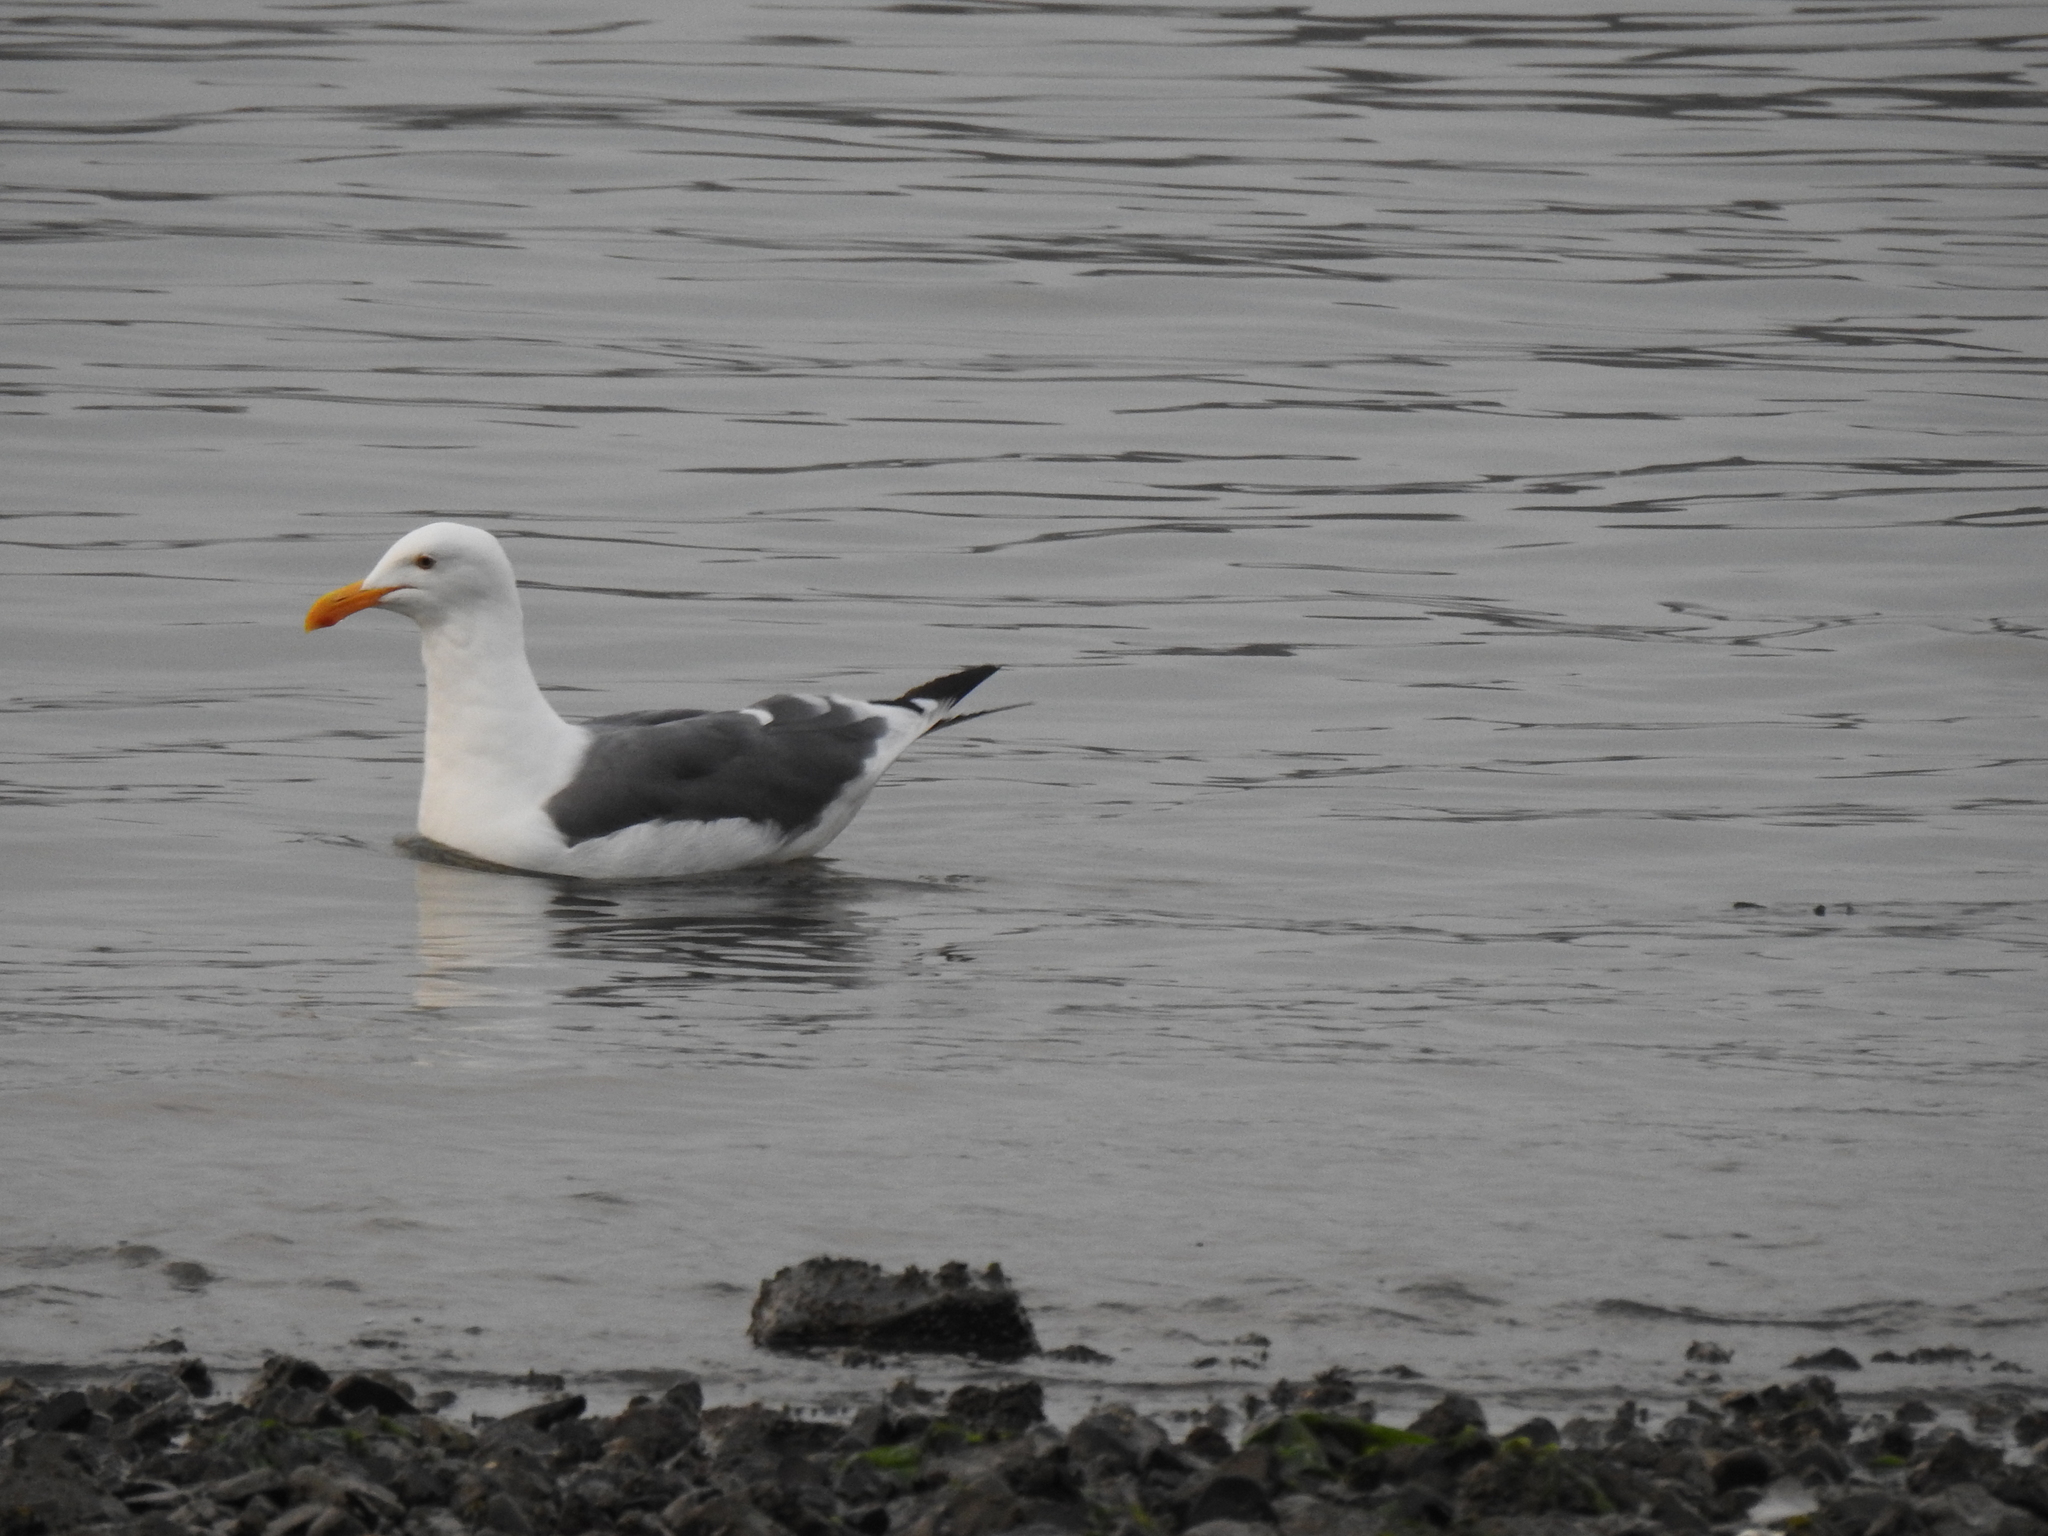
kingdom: Animalia
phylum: Chordata
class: Aves
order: Charadriiformes
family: Laridae
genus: Larus
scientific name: Larus occidentalis
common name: Western gull
